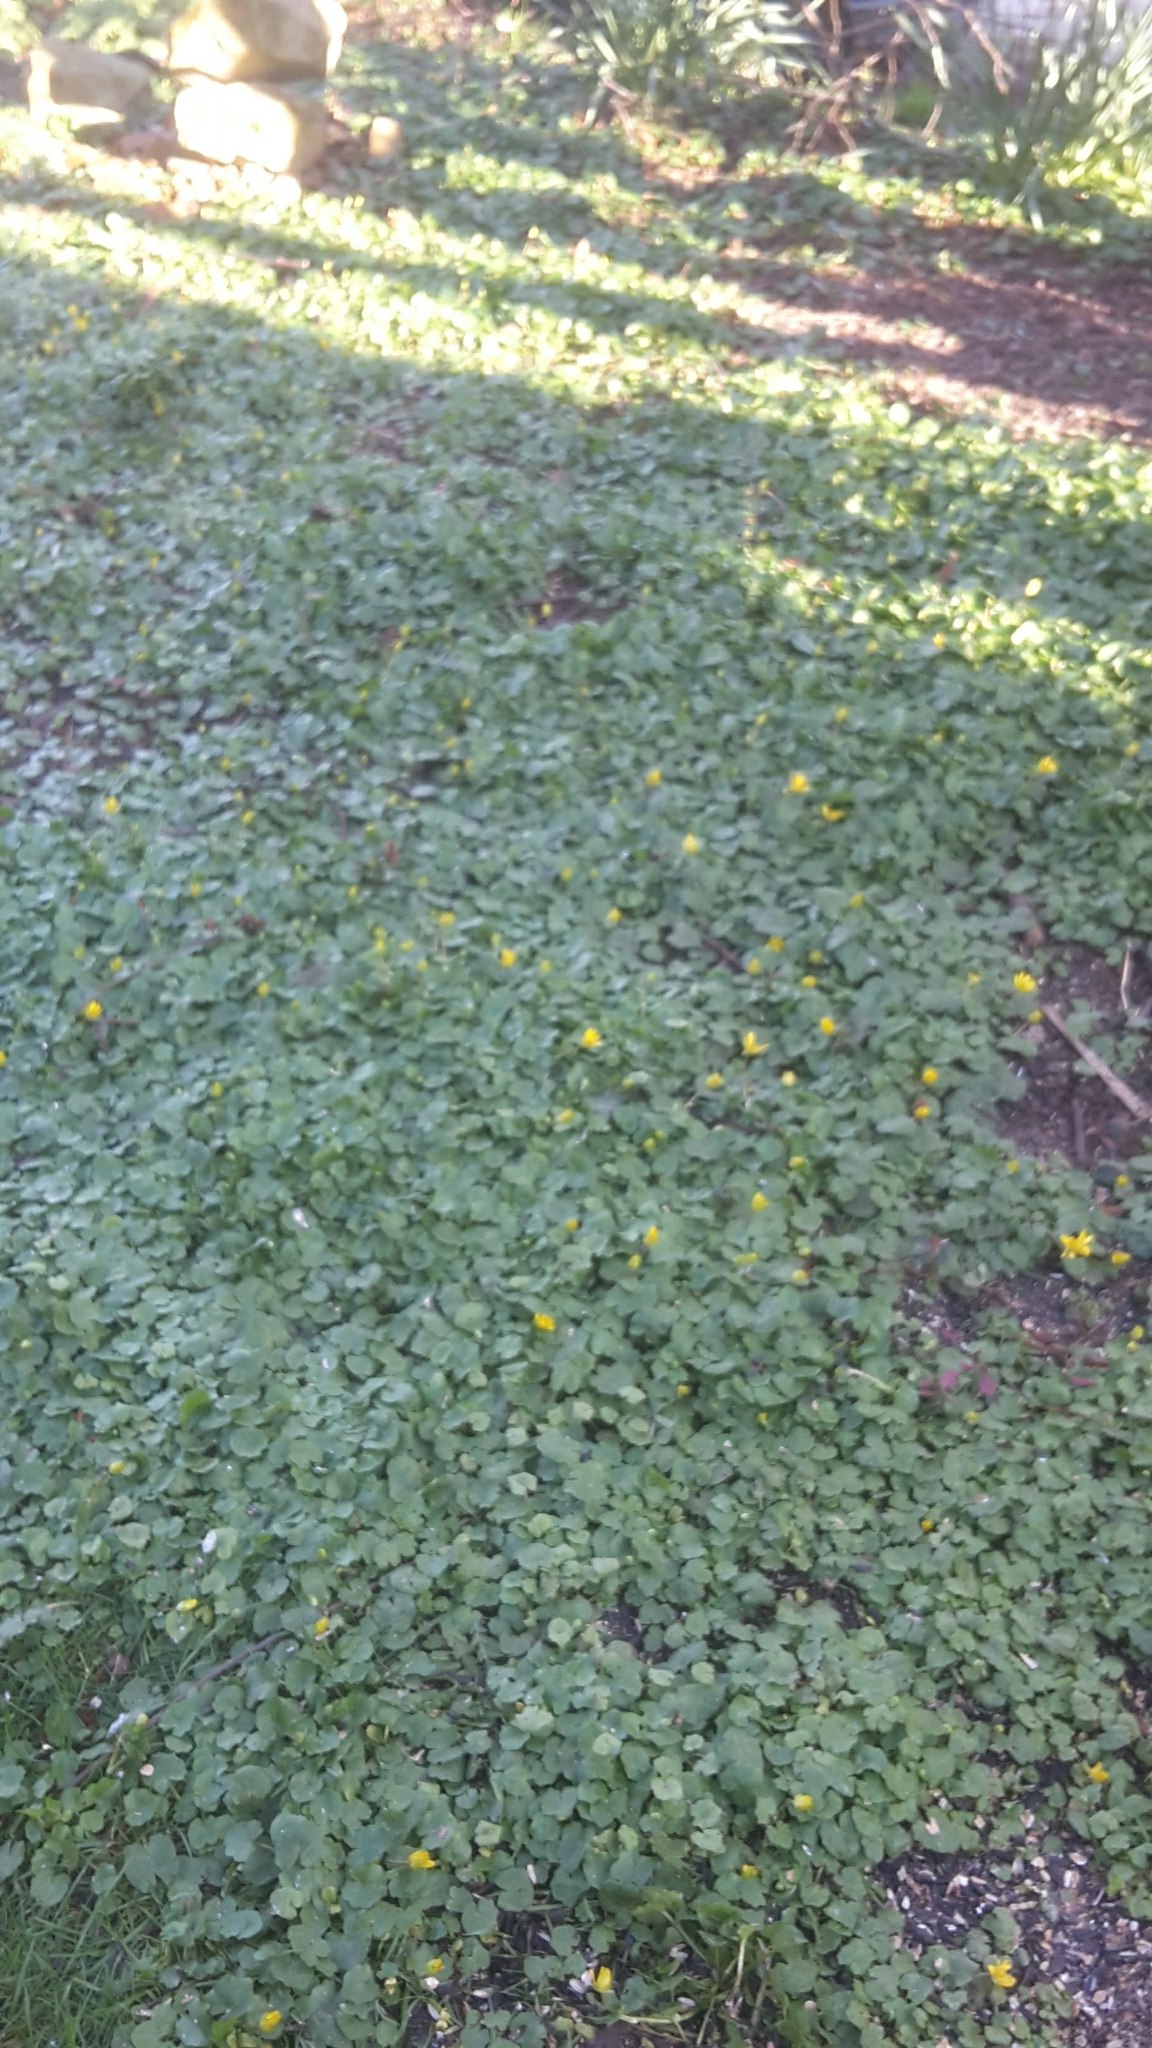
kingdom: Plantae
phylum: Tracheophyta
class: Magnoliopsida
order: Ranunculales
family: Ranunculaceae
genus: Ficaria
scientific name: Ficaria verna
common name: Lesser celandine
